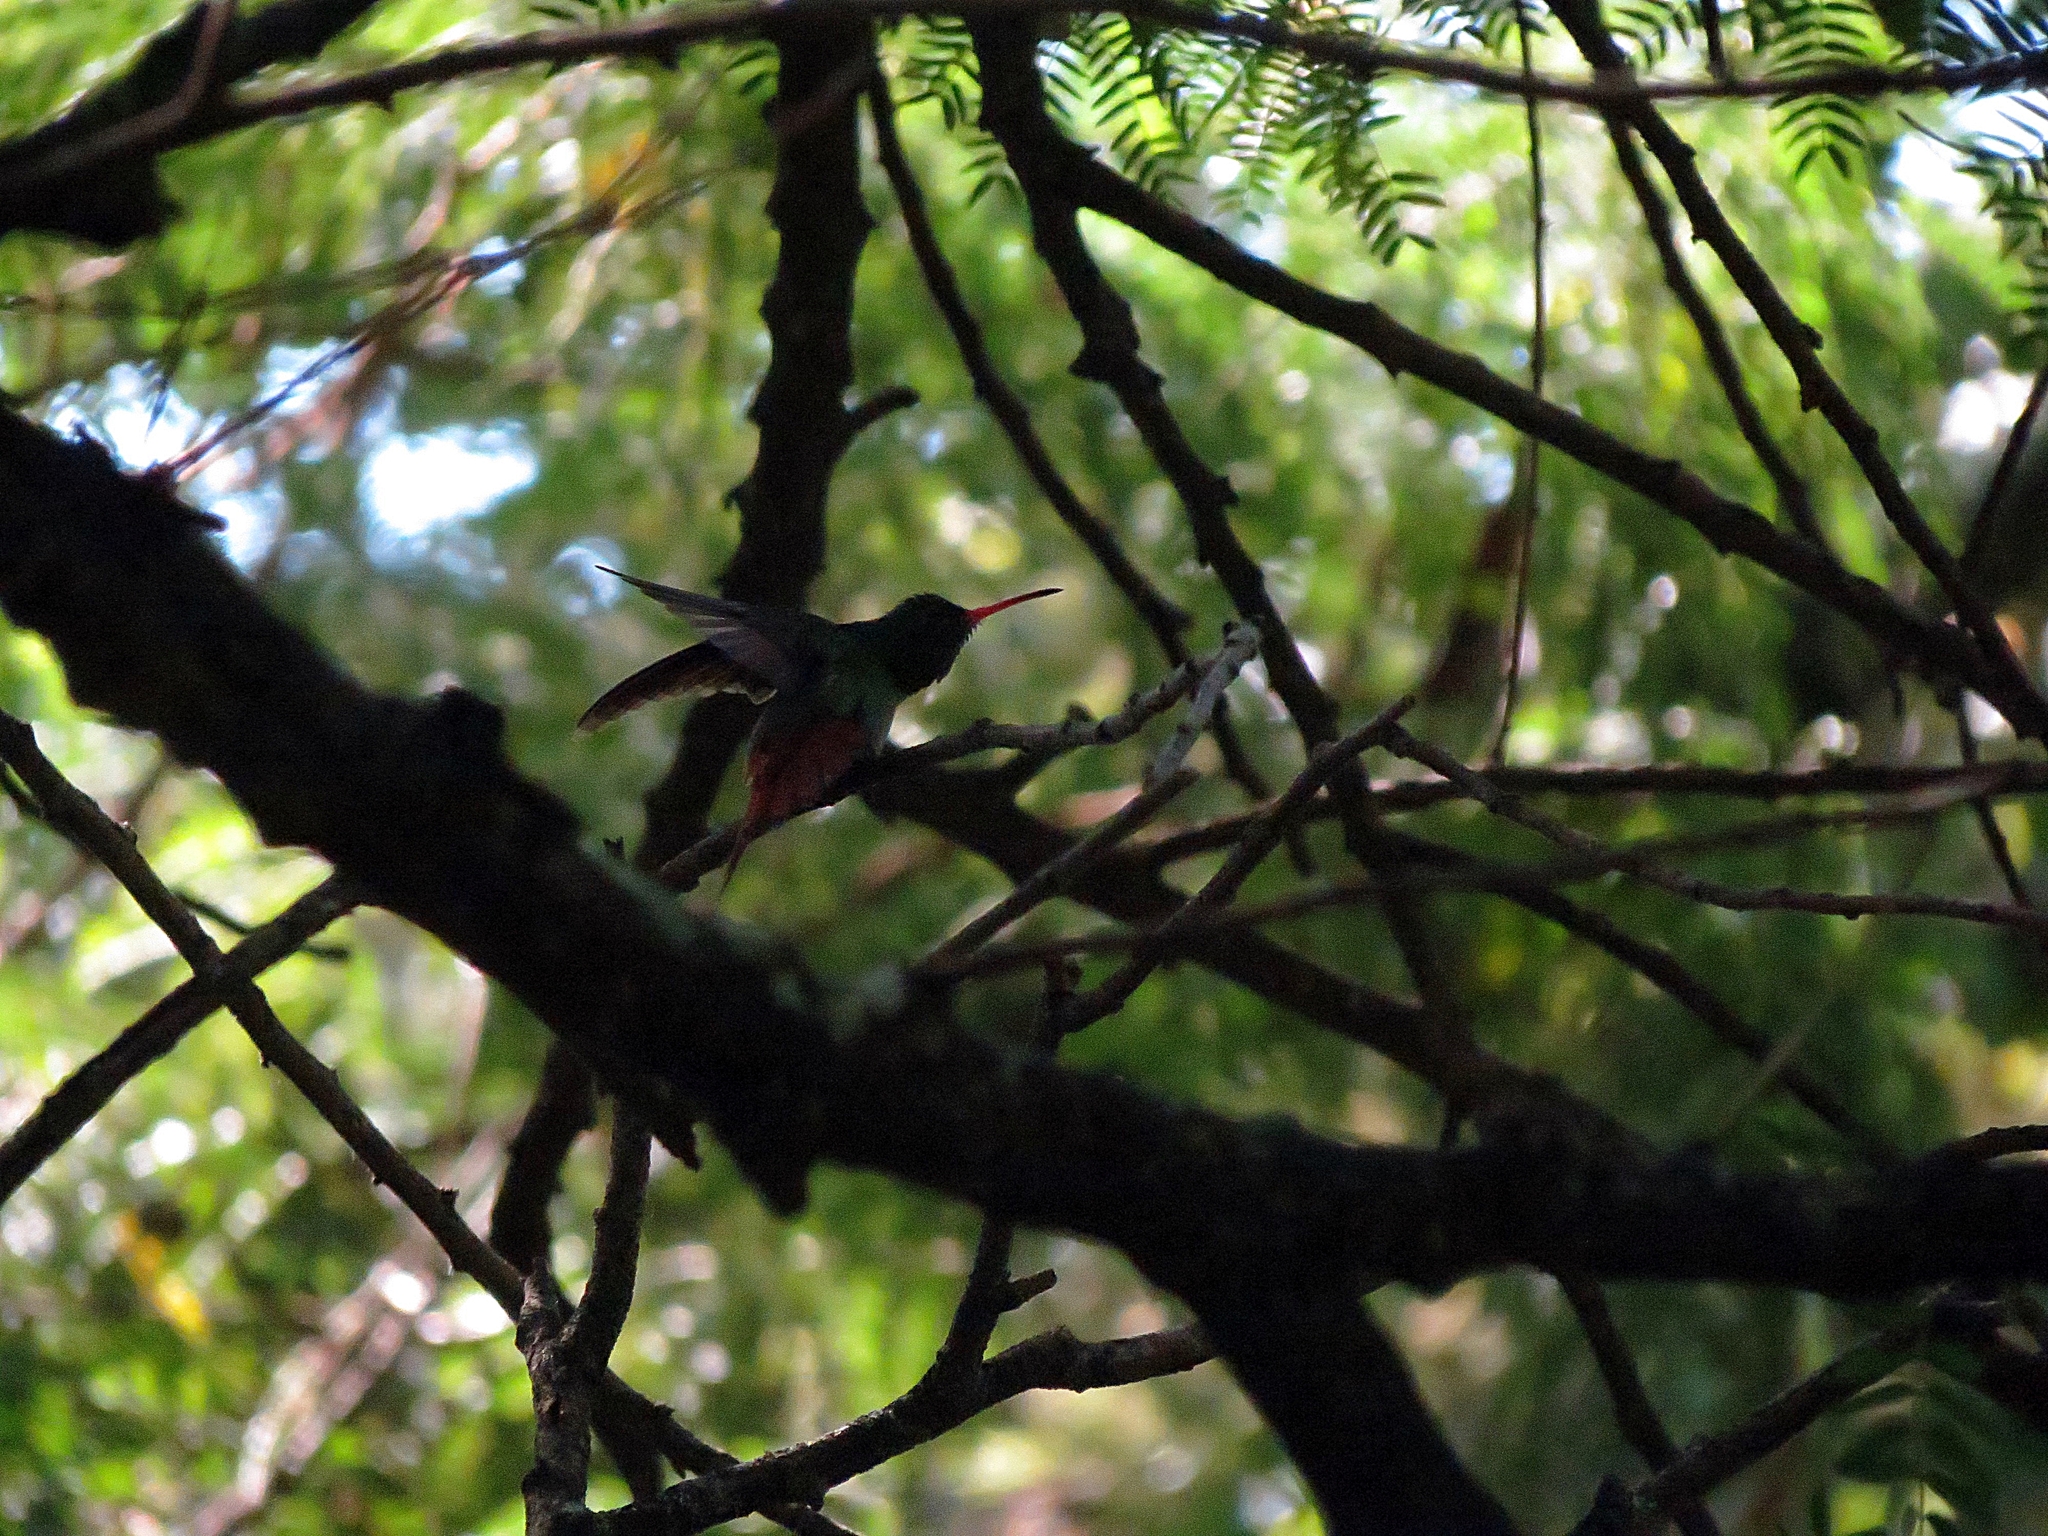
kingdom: Animalia
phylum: Chordata
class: Aves
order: Apodiformes
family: Trochilidae
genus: Amazilia
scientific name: Amazilia tzacatl
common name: Rufous-tailed hummingbird
